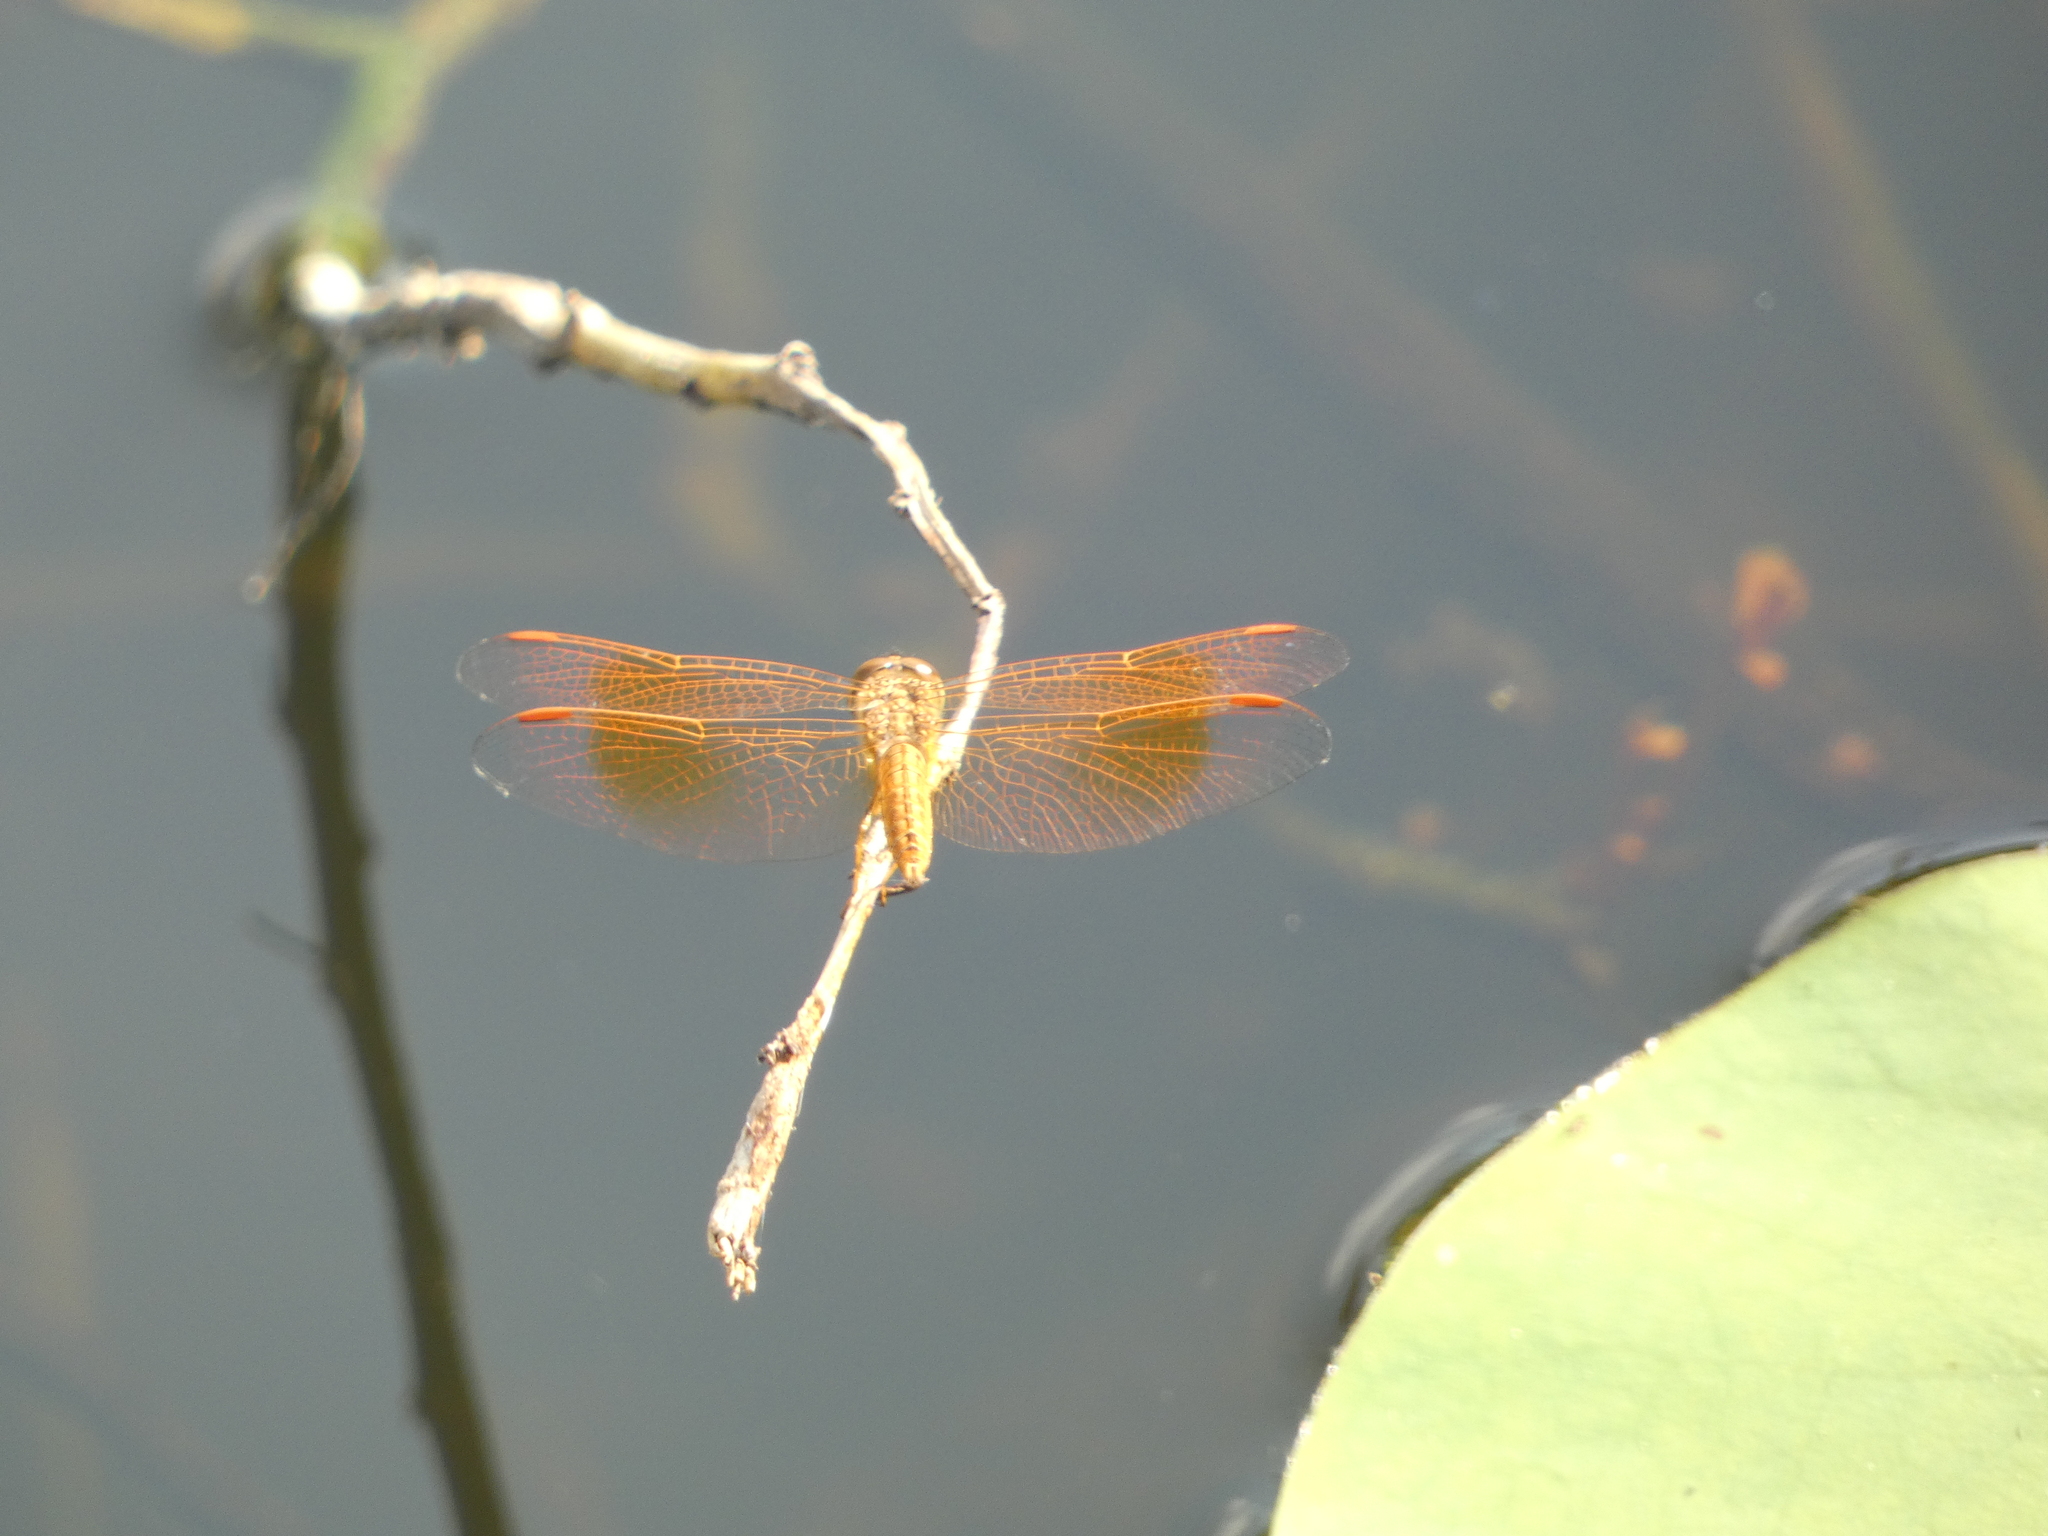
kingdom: Animalia
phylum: Arthropoda
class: Insecta
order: Odonata
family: Libellulidae
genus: Brachythemis
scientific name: Brachythemis contaminata
